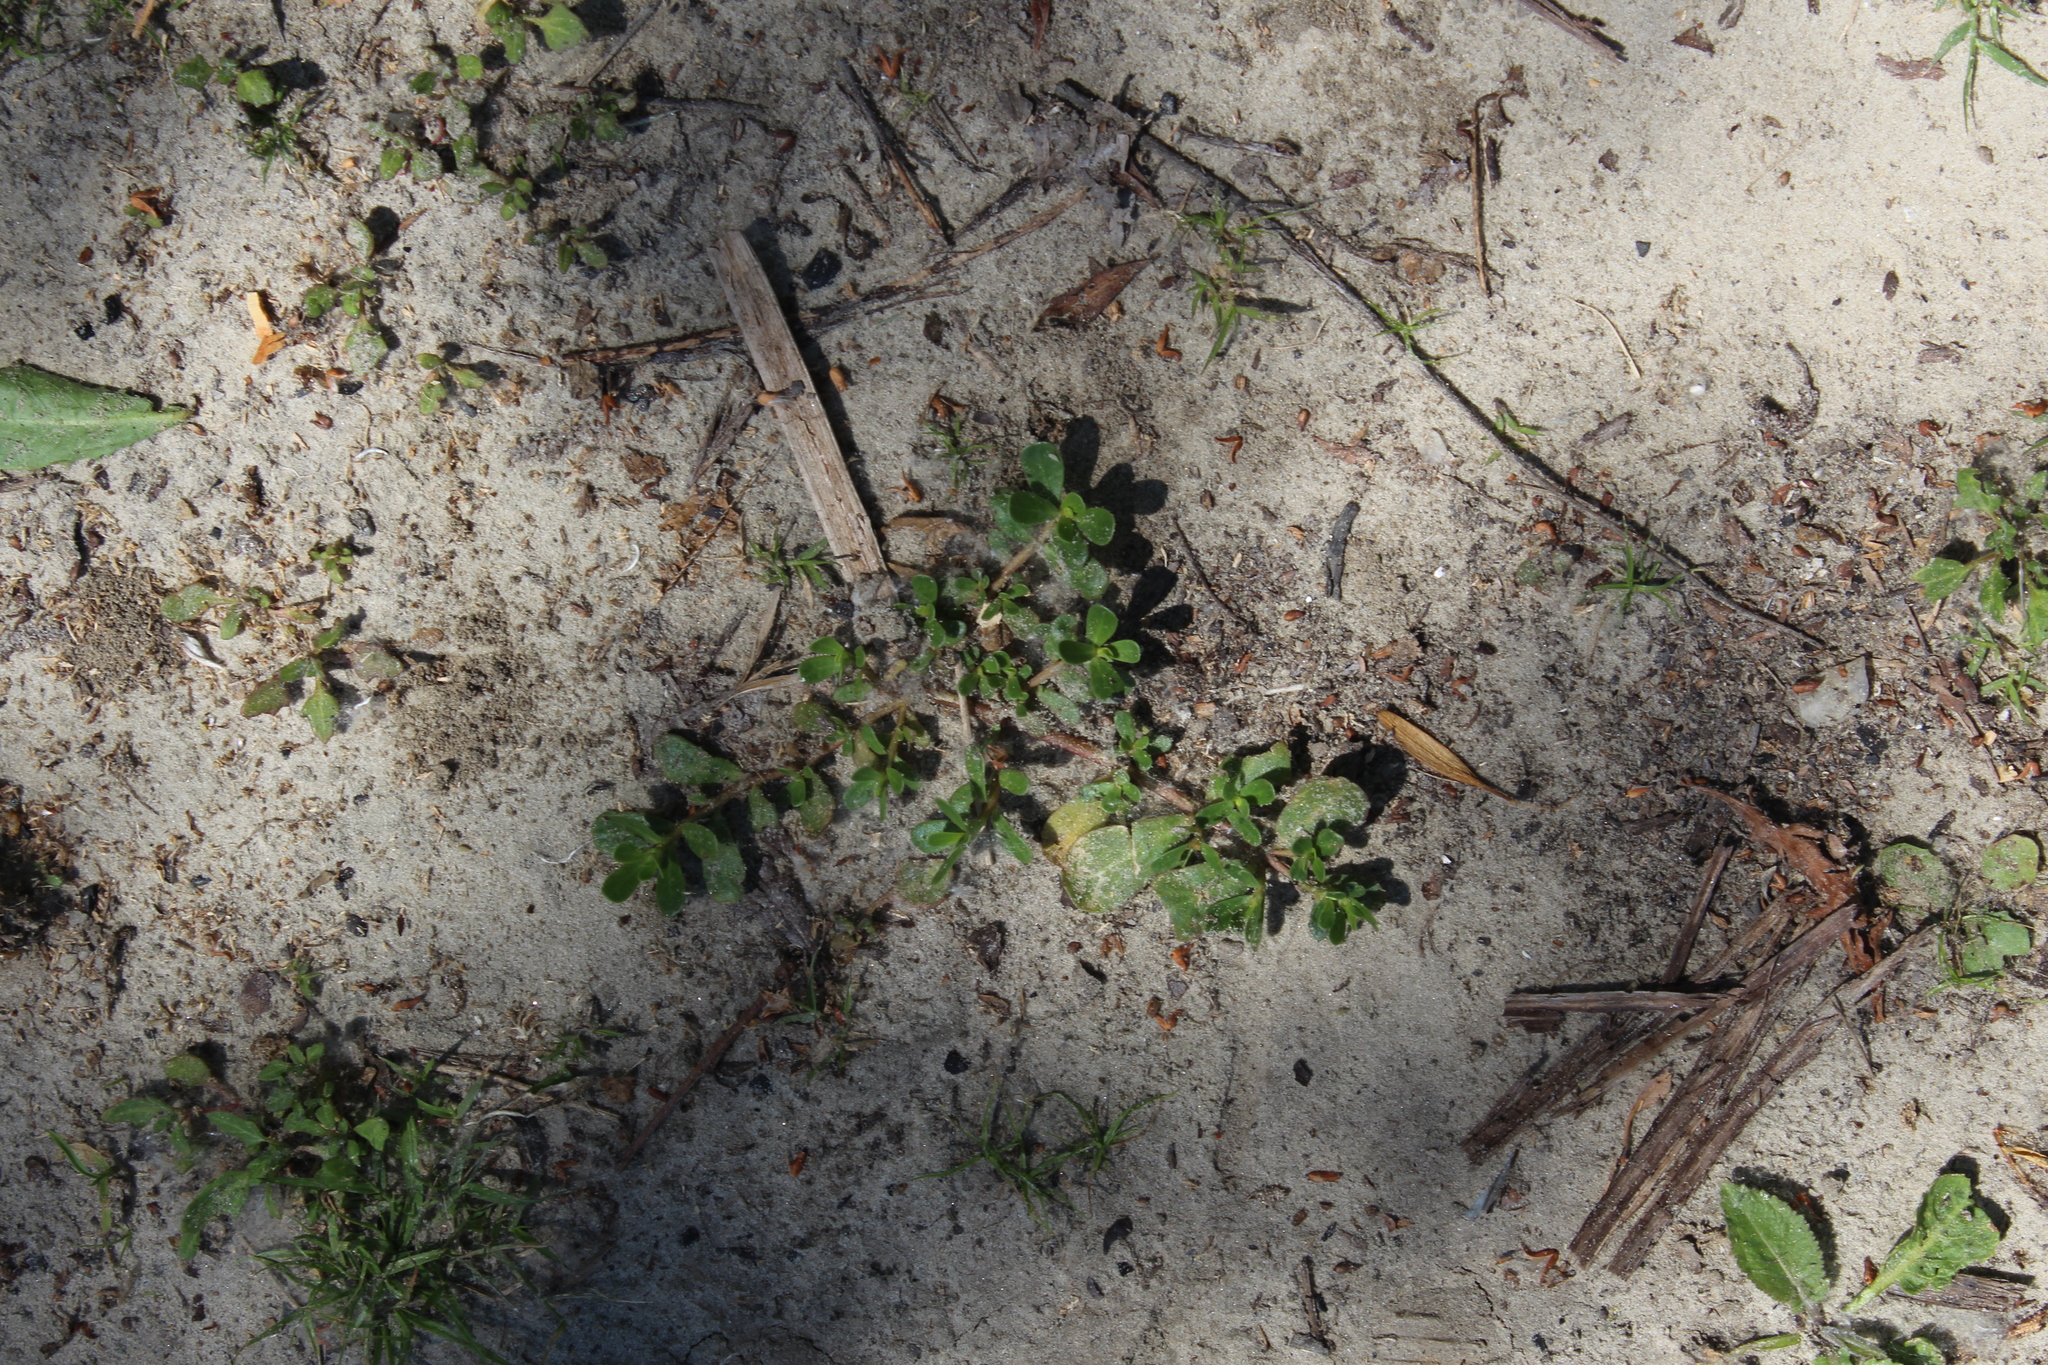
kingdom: Plantae
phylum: Tracheophyta
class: Magnoliopsida
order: Caryophyllales
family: Portulacaceae
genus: Portulaca
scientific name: Portulaca oleracea
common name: Common purslane
